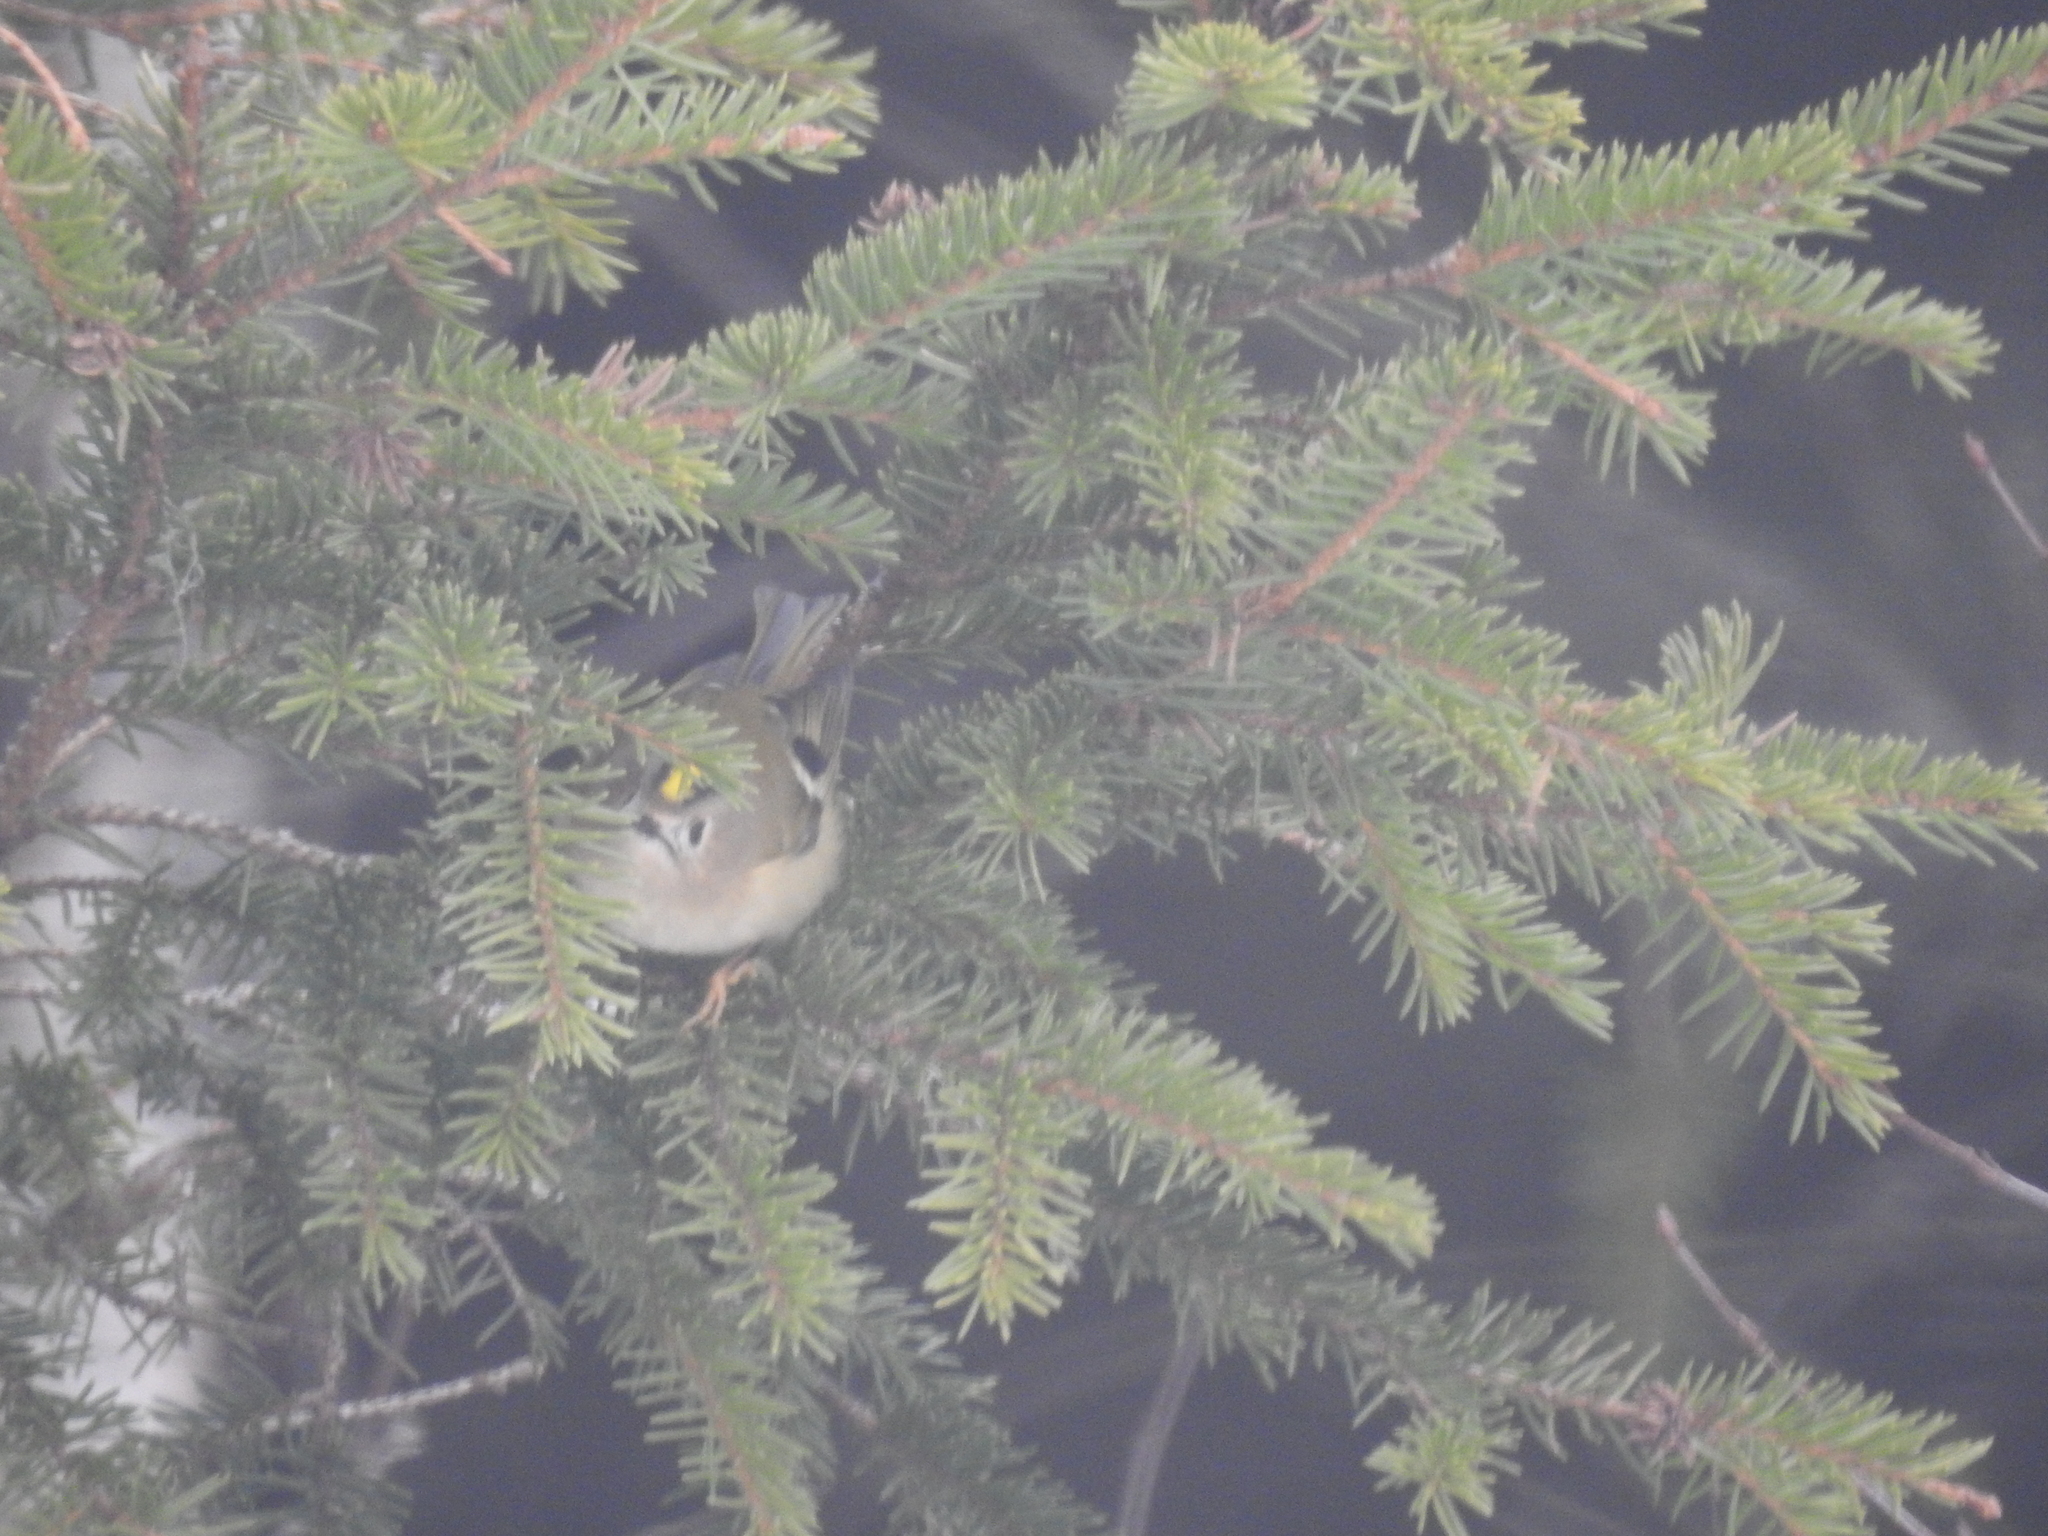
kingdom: Animalia
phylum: Chordata
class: Aves
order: Passeriformes
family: Regulidae
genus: Regulus
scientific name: Regulus regulus
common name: Goldcrest
